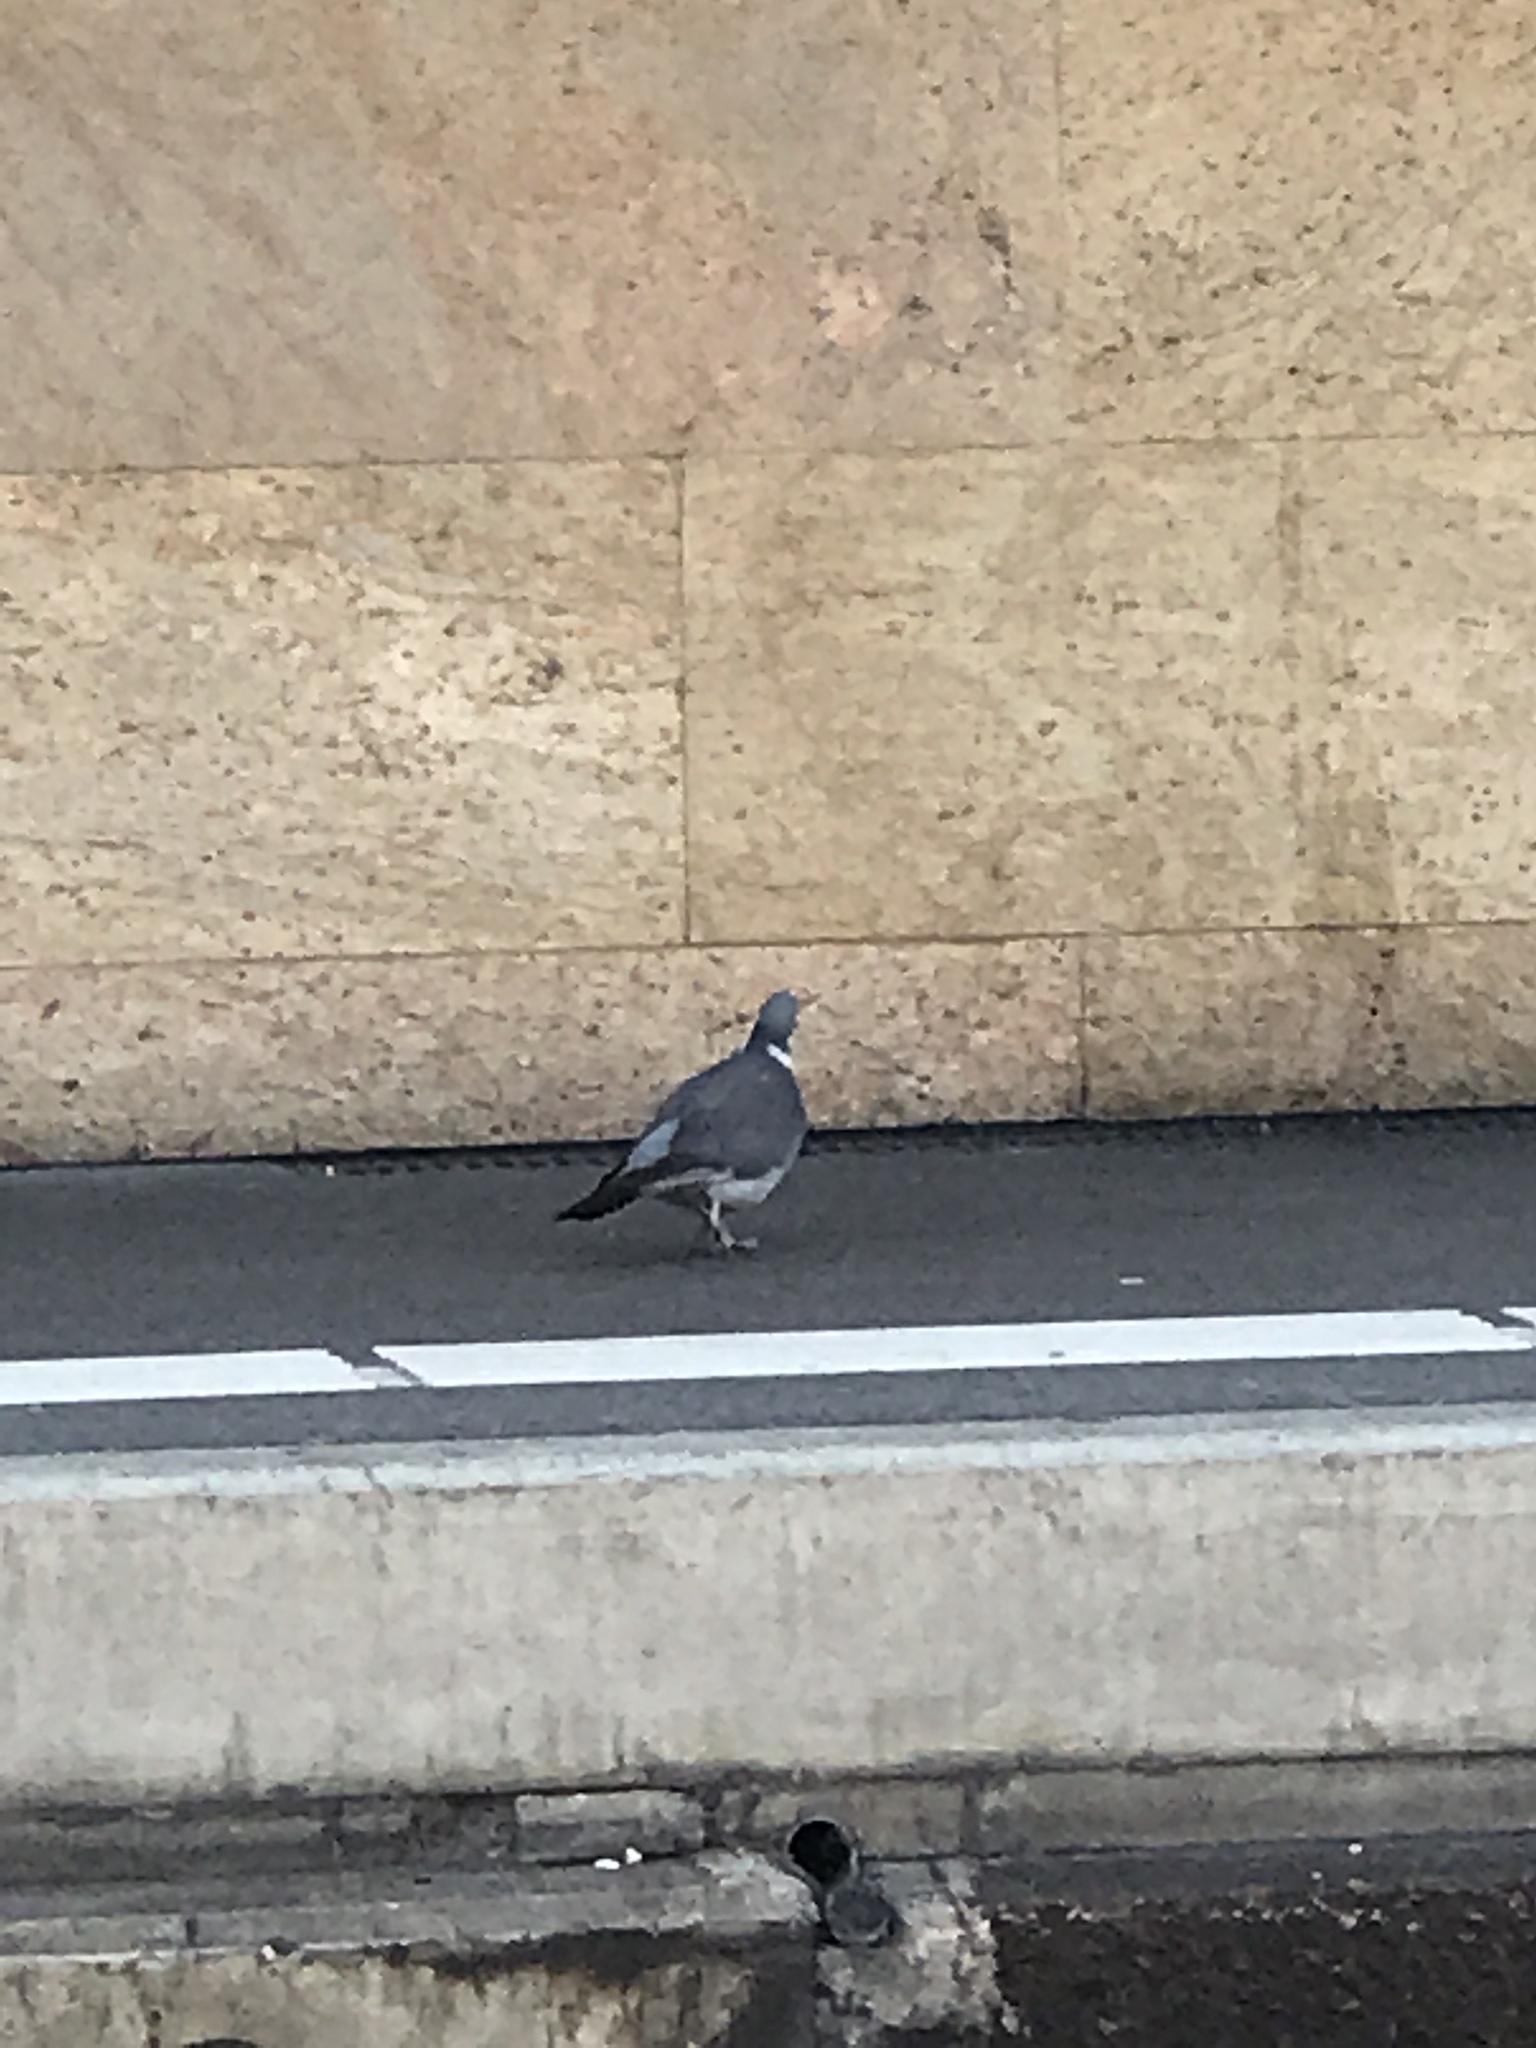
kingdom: Animalia
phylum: Chordata
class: Aves
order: Columbiformes
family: Columbidae
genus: Columba
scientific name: Columba palumbus
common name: Common wood pigeon
